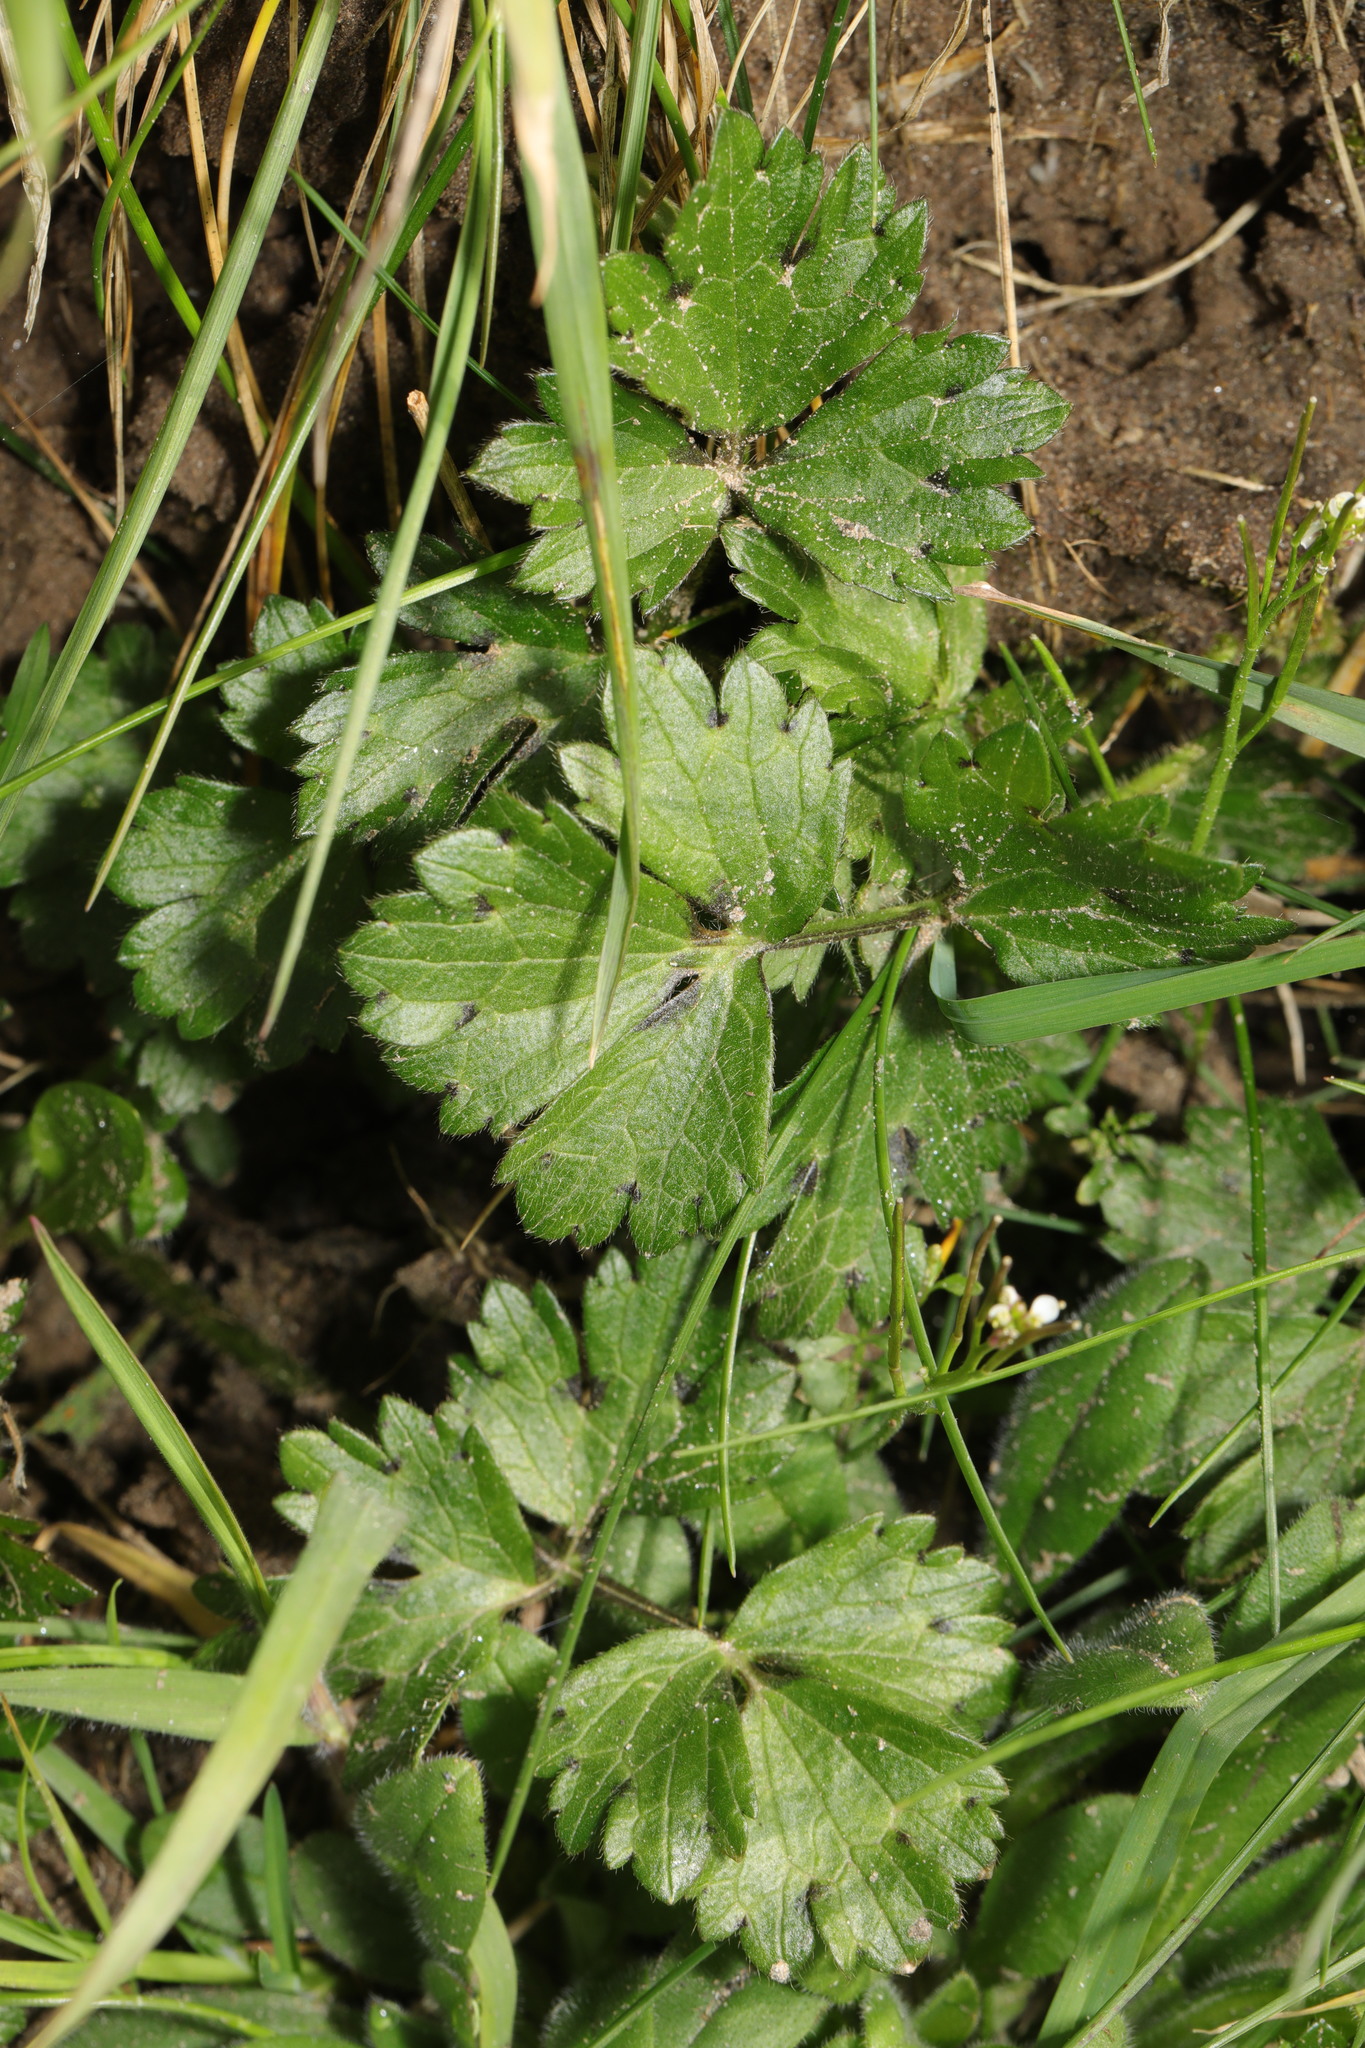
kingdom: Plantae
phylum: Tracheophyta
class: Magnoliopsida
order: Ranunculales
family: Ranunculaceae
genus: Ranunculus
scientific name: Ranunculus repens
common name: Creeping buttercup
